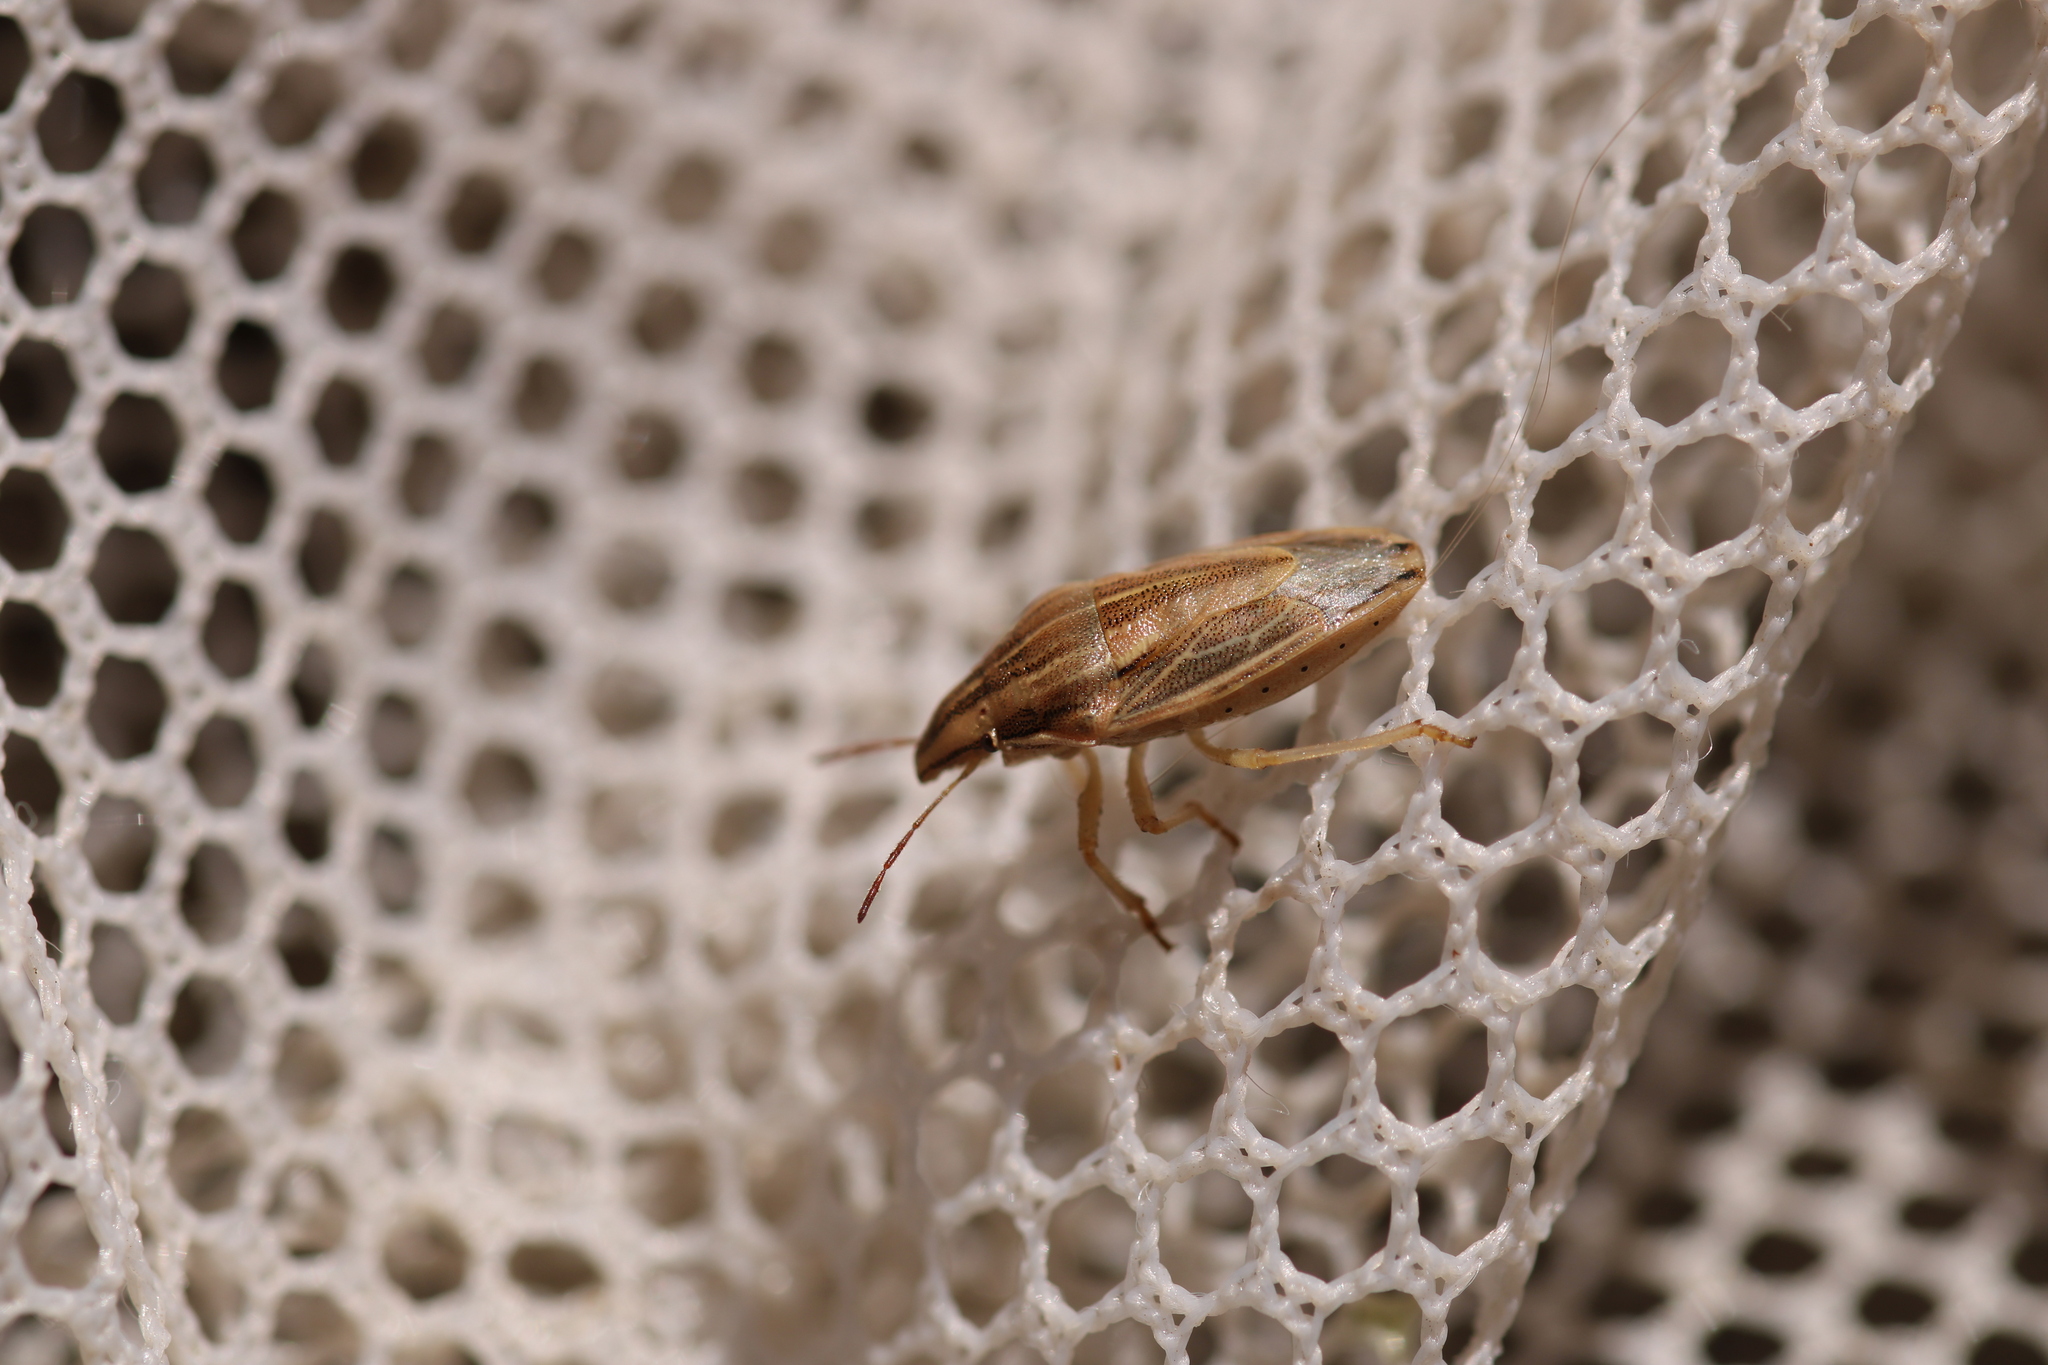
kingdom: Animalia
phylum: Arthropoda
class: Insecta
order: Hemiptera
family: Pentatomidae
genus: Aelia
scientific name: Aelia acuminata
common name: Bishop's mitre
